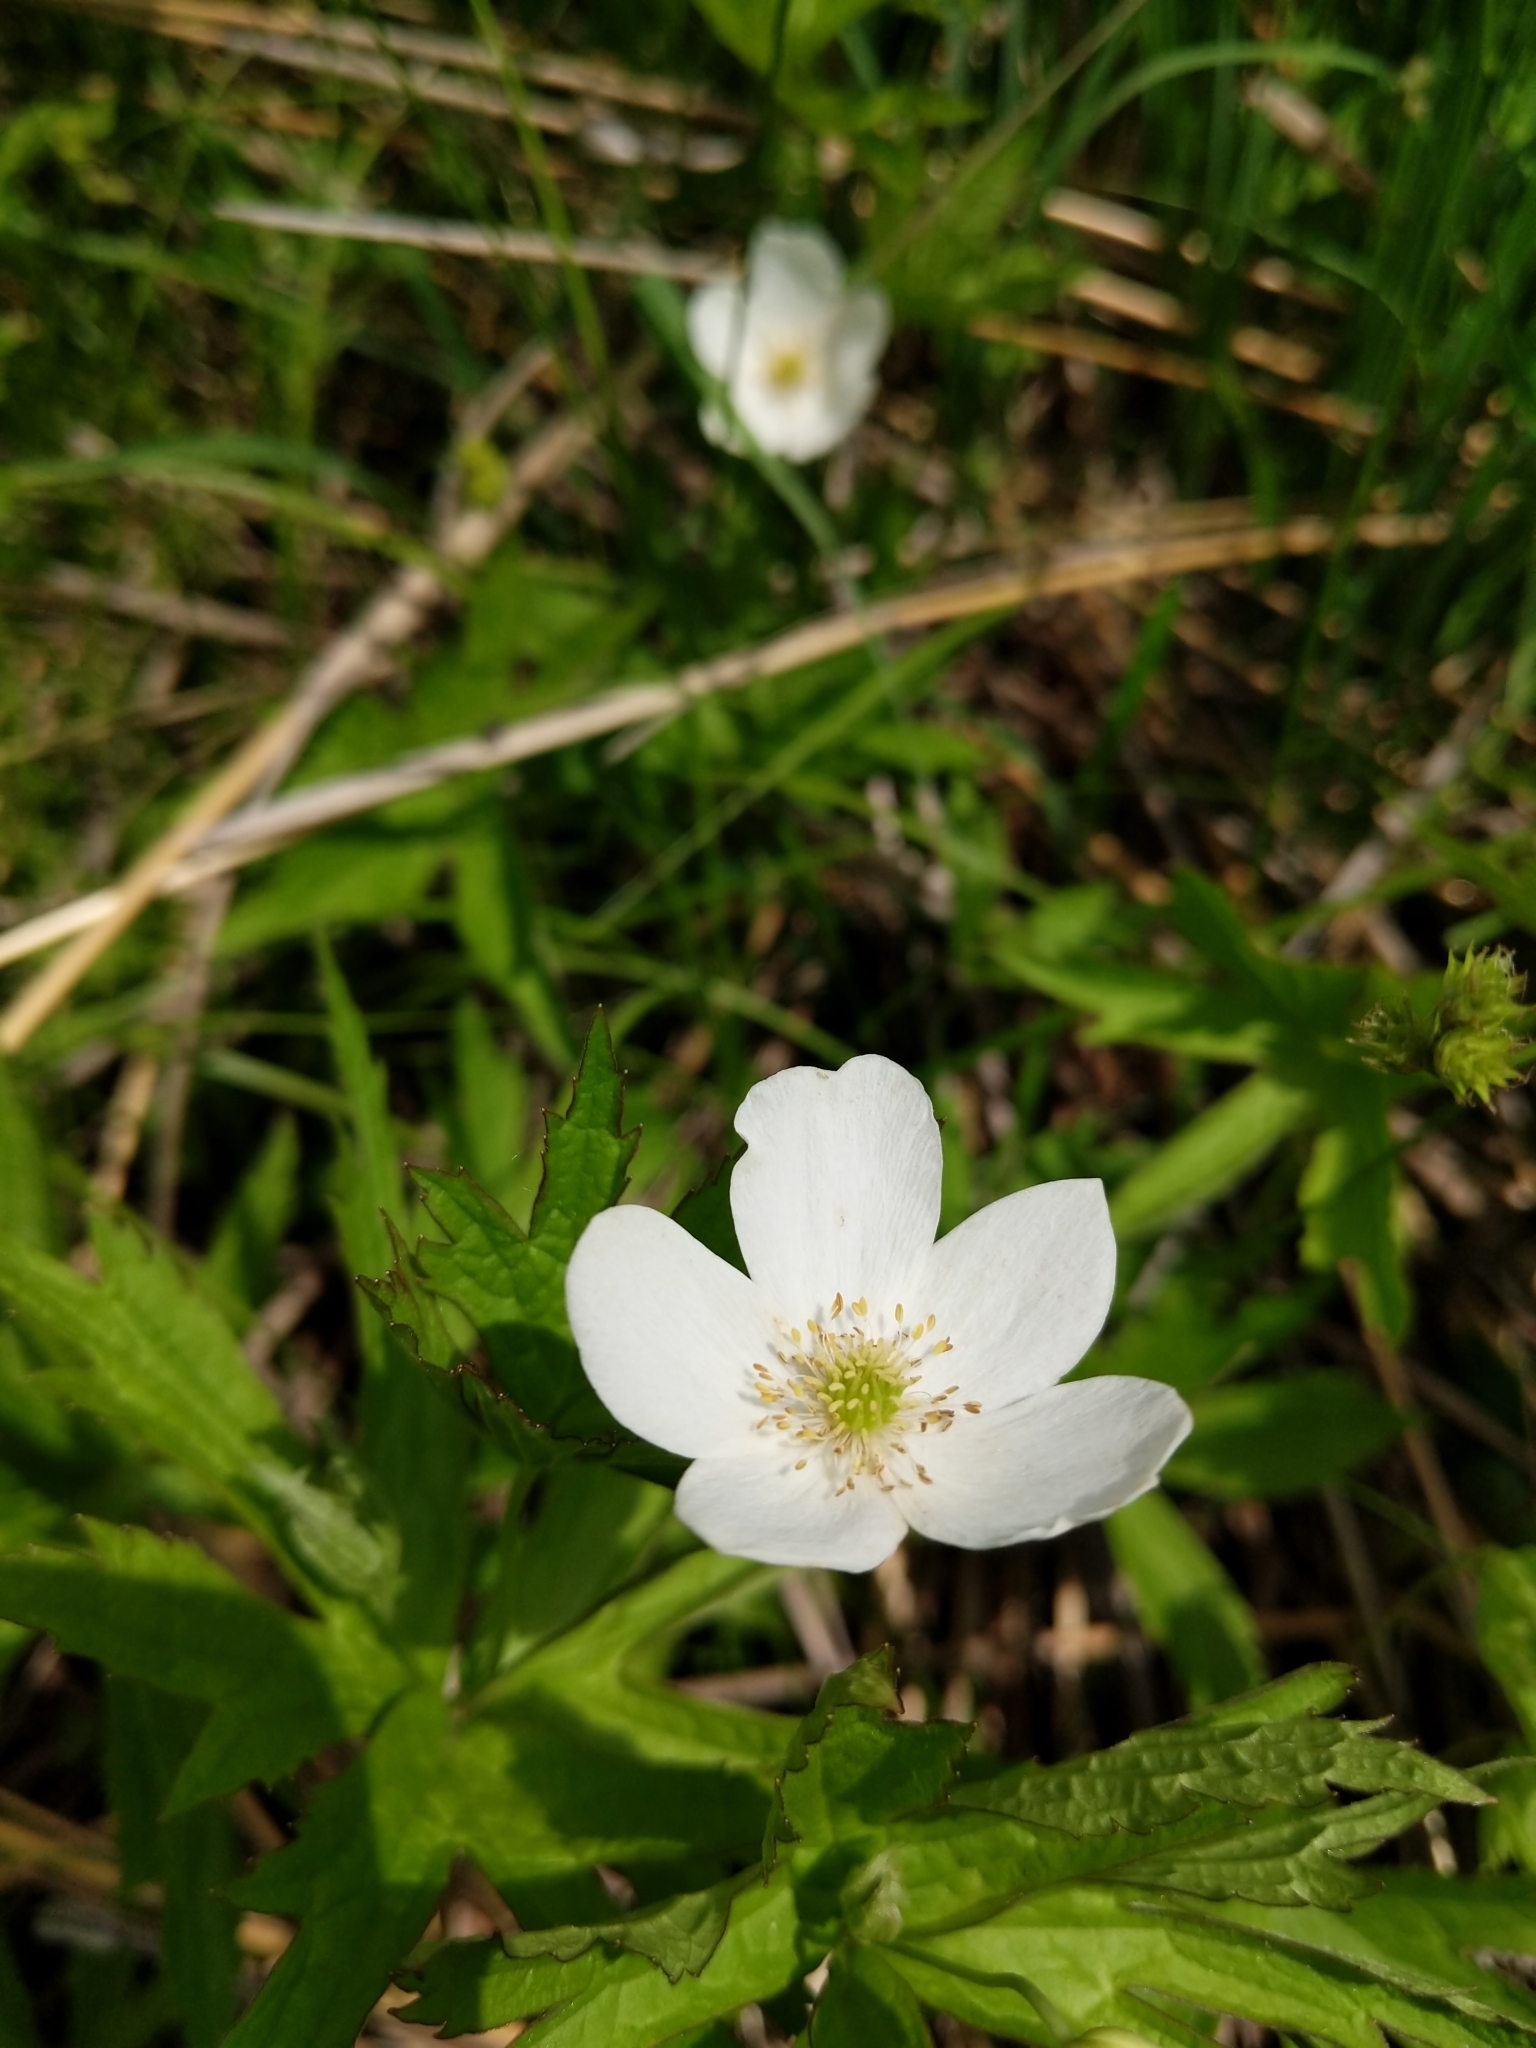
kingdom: Plantae
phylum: Tracheophyta
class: Magnoliopsida
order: Ranunculales
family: Ranunculaceae
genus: Anemonastrum
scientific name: Anemonastrum canadense
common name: Canada anemone
